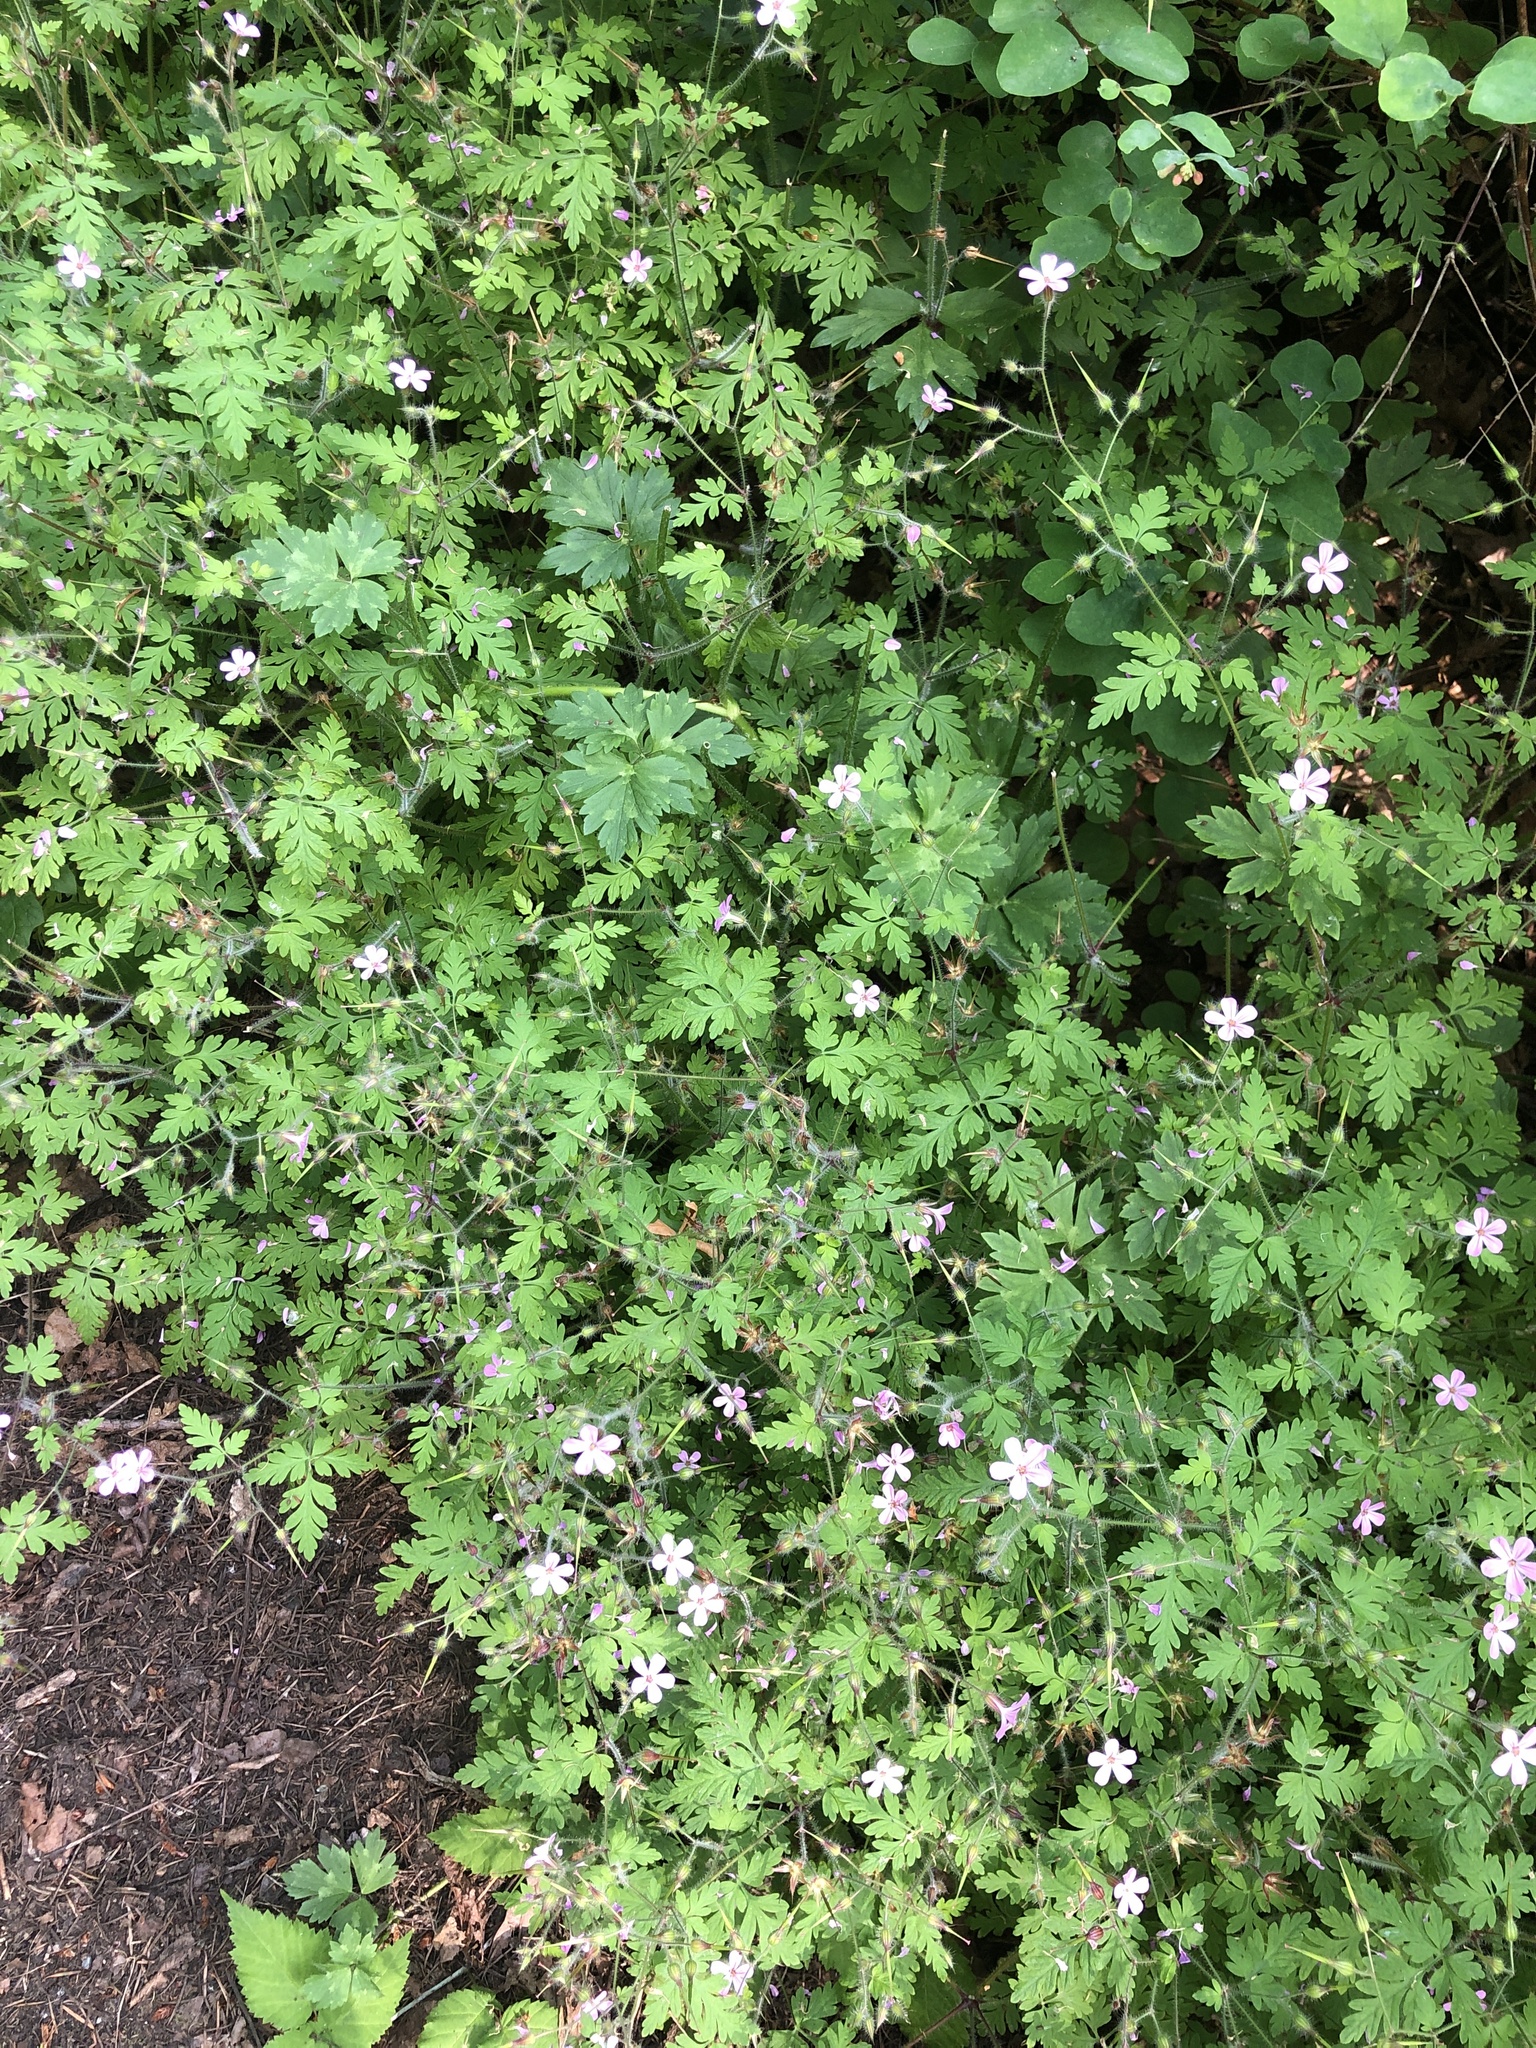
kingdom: Plantae
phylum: Tracheophyta
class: Magnoliopsida
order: Geraniales
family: Geraniaceae
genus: Geranium
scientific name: Geranium robertianum
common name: Herb-robert
